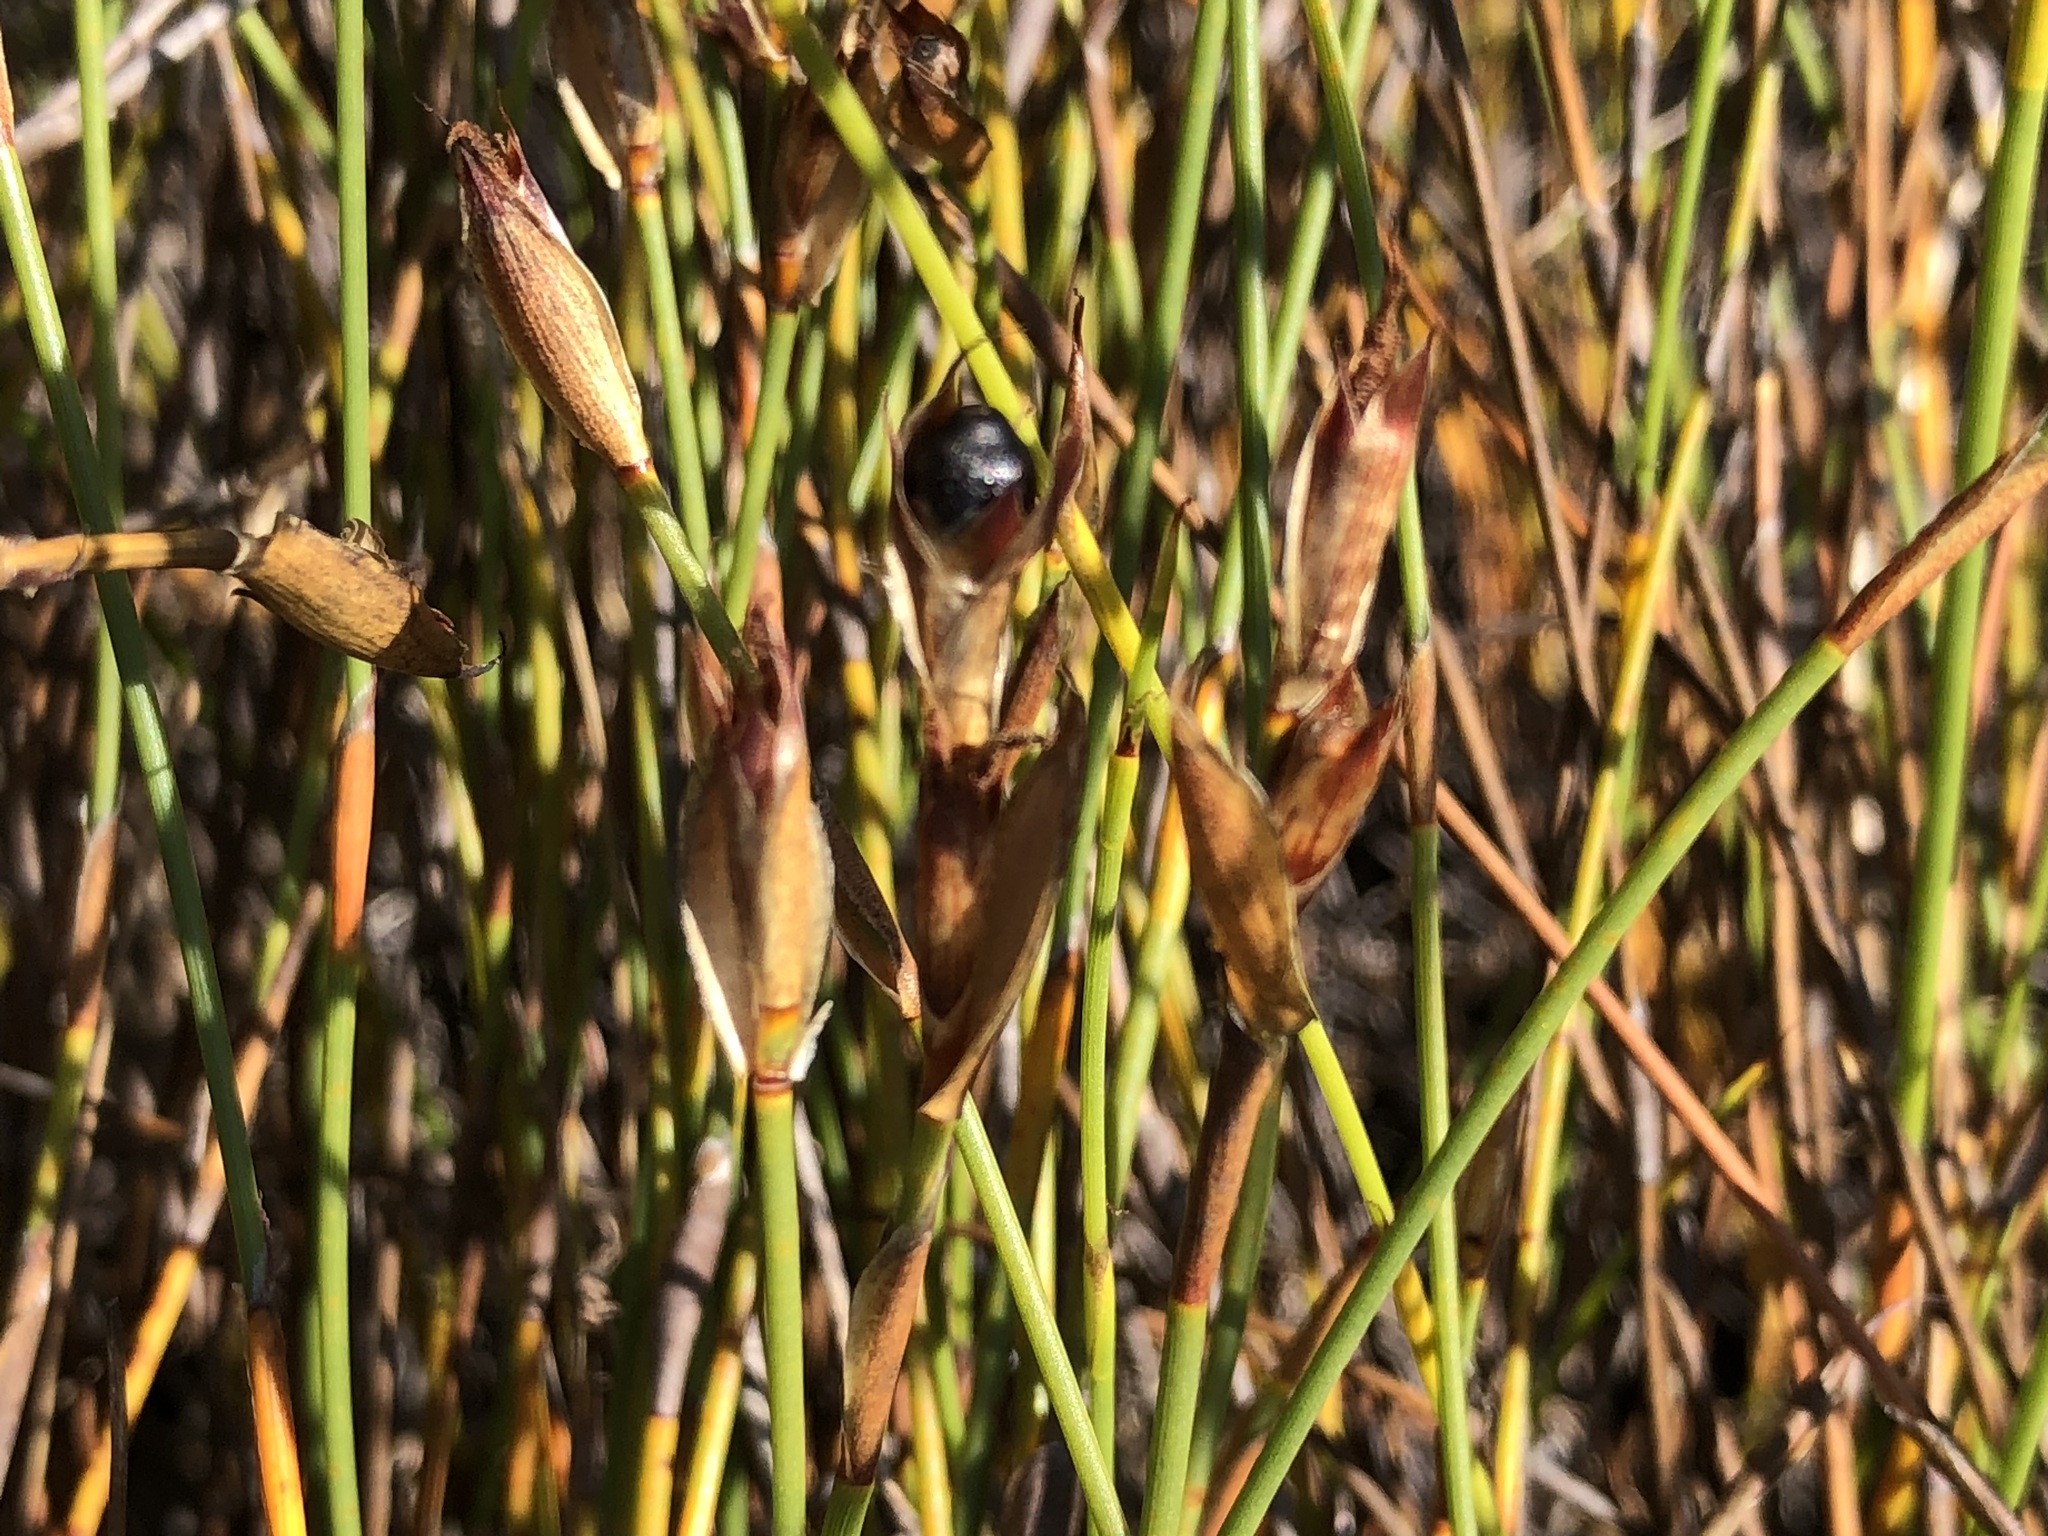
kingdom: Plantae
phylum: Tracheophyta
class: Liliopsida
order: Poales
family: Restionaceae
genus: Willdenowia
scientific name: Willdenowia sulcata
